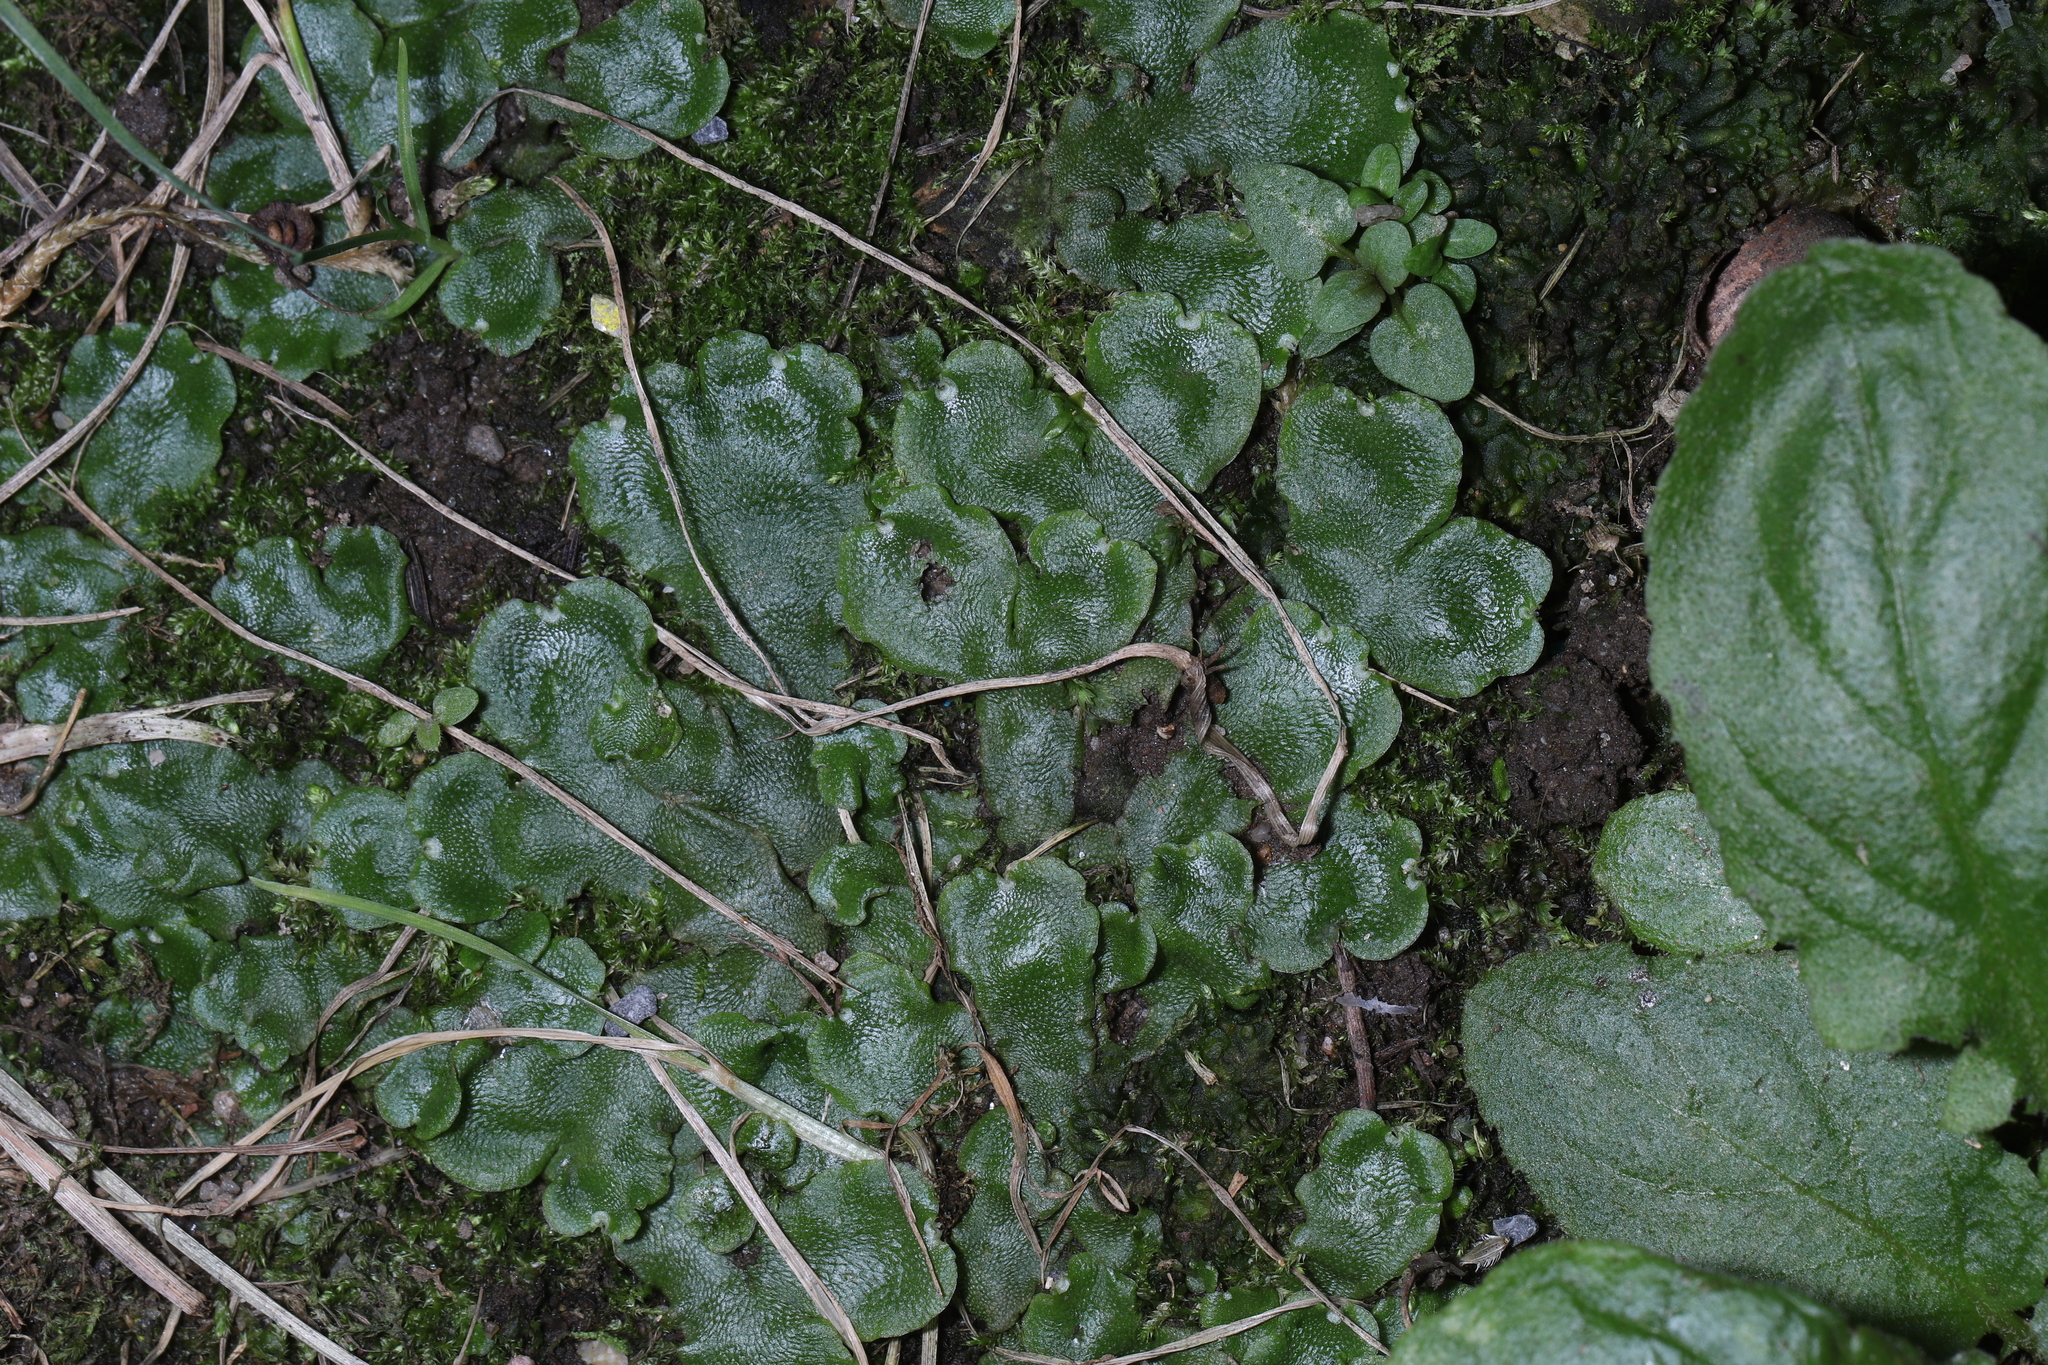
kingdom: Plantae
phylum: Marchantiophyta
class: Marchantiopsida
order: Marchantiales
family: Marchantiaceae
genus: Marchantia
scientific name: Marchantia polymorpha
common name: Common liverwort
